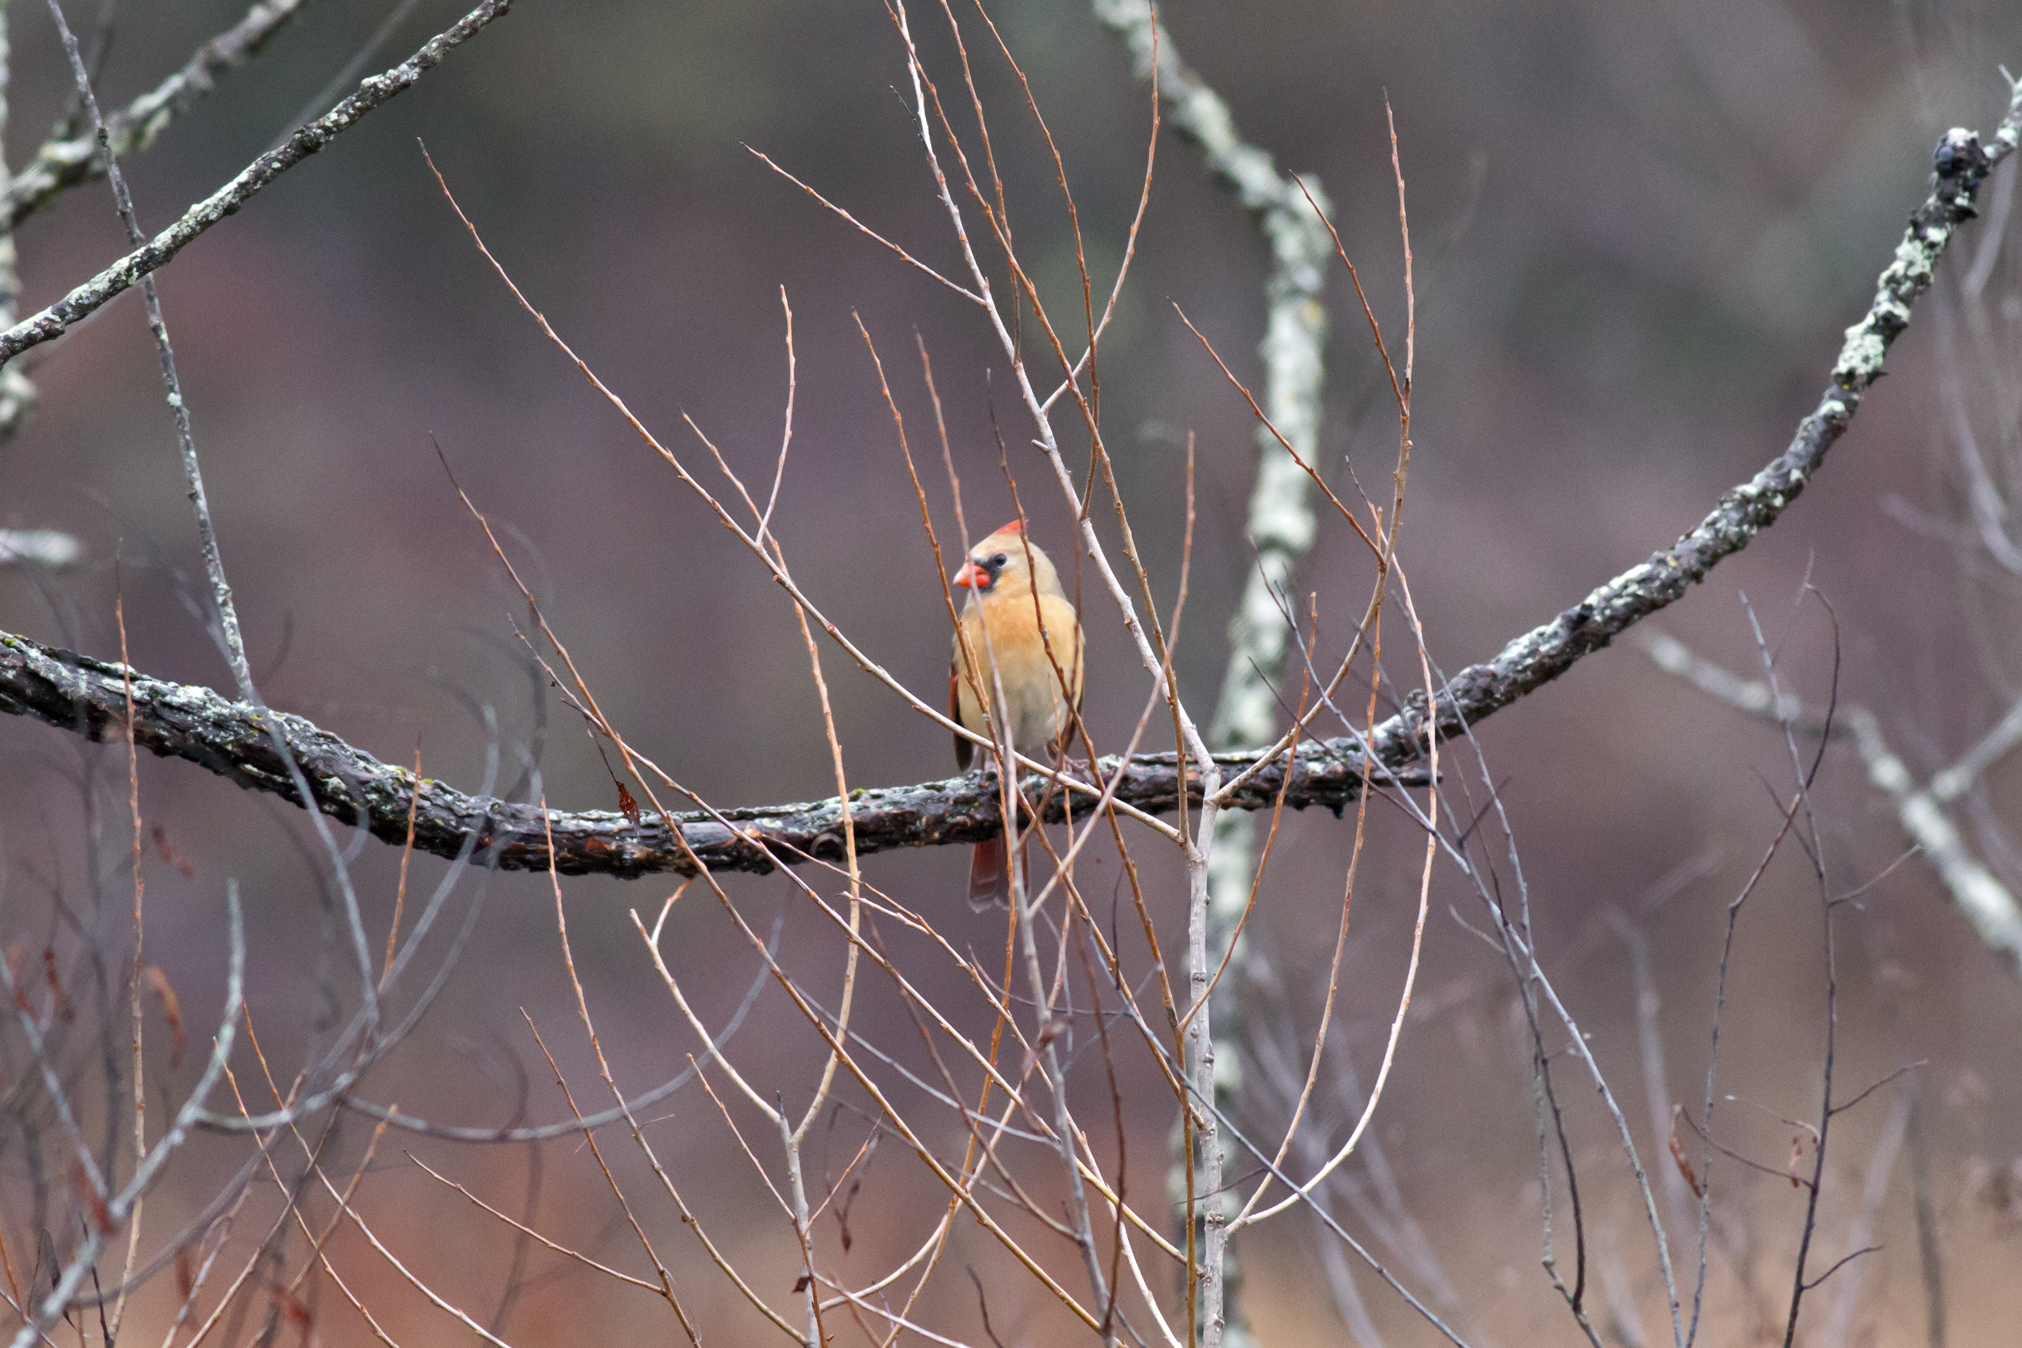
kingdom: Animalia
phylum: Chordata
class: Aves
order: Passeriformes
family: Cardinalidae
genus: Cardinalis
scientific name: Cardinalis cardinalis
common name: Northern cardinal
